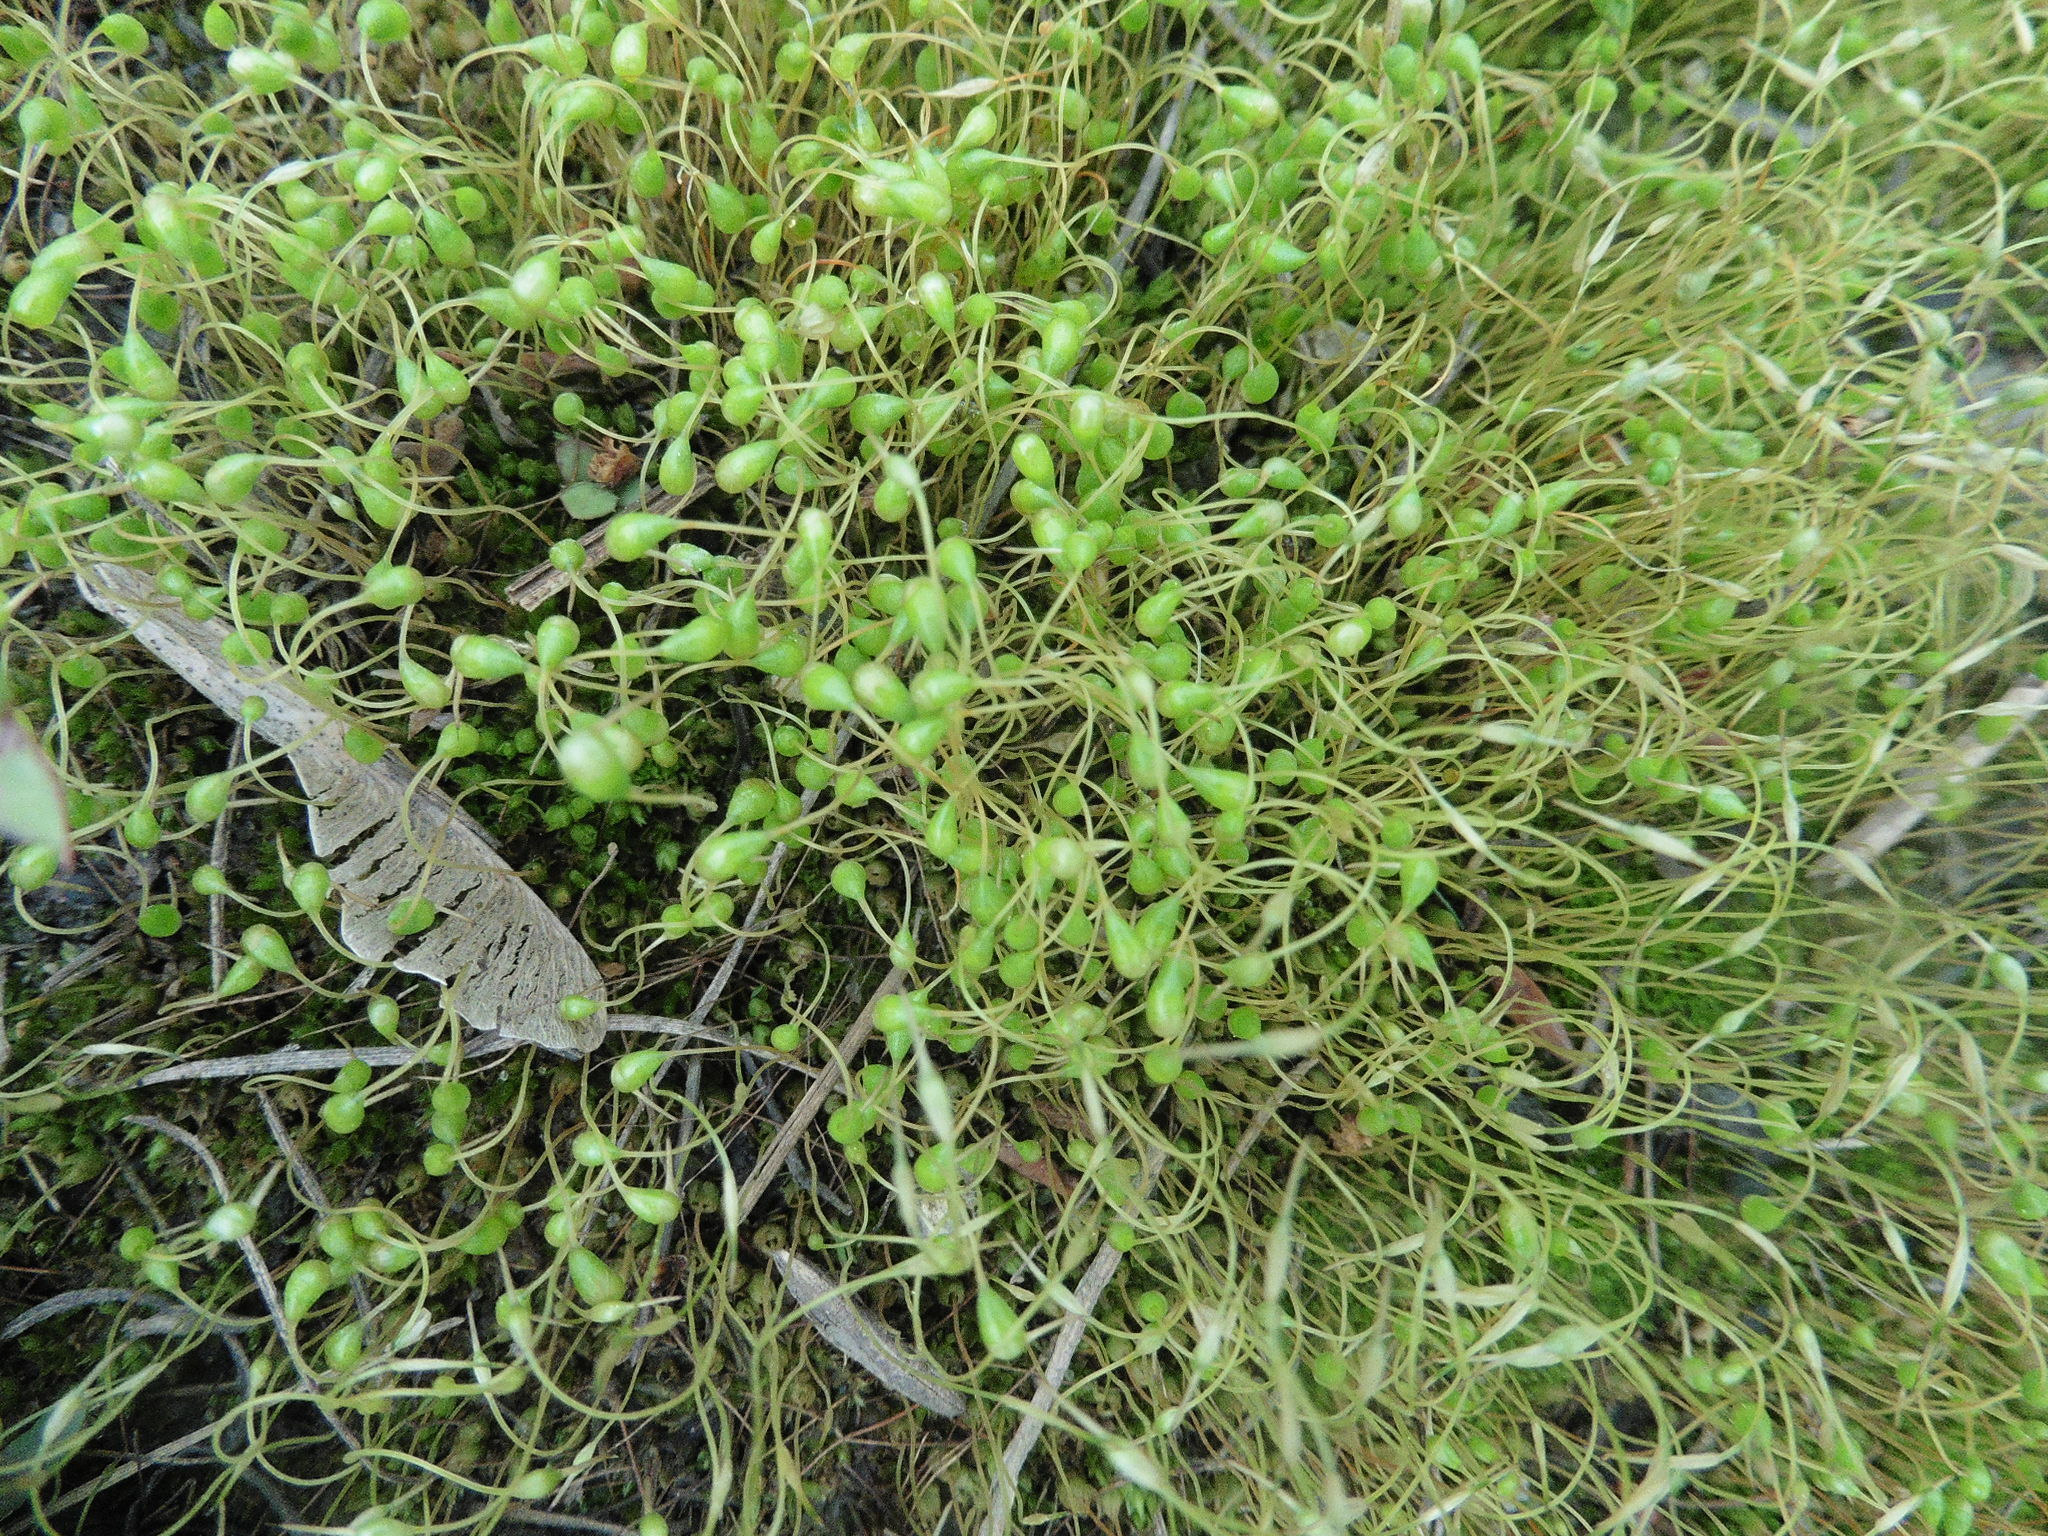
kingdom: Plantae
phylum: Bryophyta
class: Bryopsida
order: Funariales
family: Funariaceae
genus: Funaria
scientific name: Funaria hygrometrica
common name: Common cord moss
